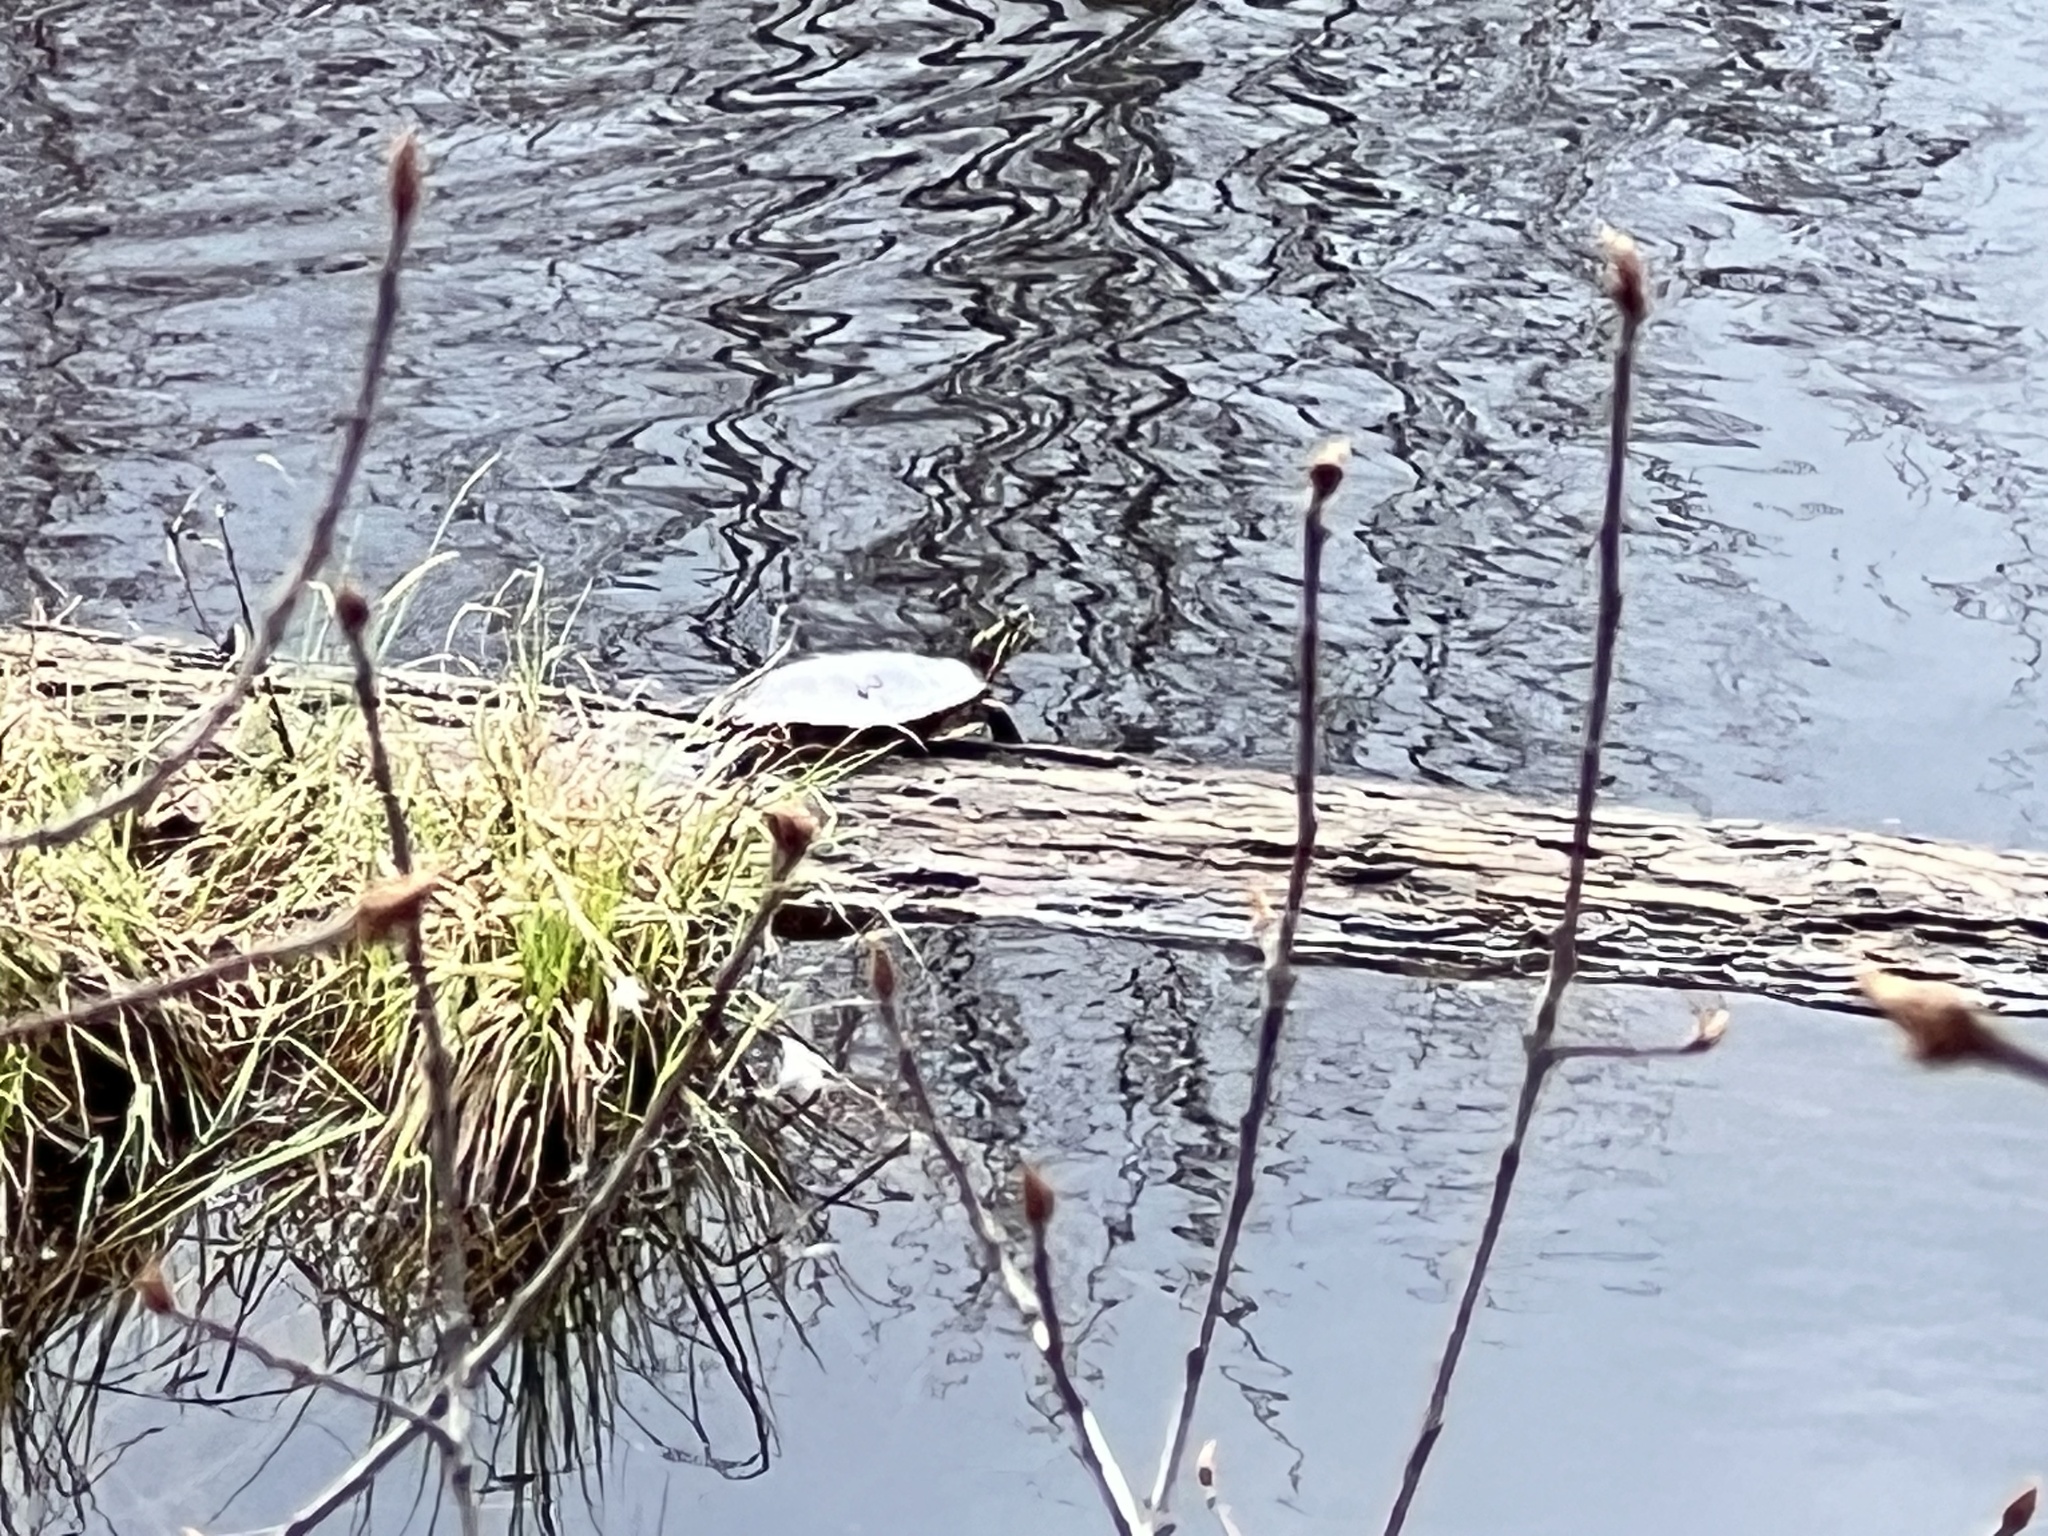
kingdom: Animalia
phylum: Chordata
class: Testudines
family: Emydidae
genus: Chrysemys
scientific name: Chrysemys picta
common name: Painted turtle
